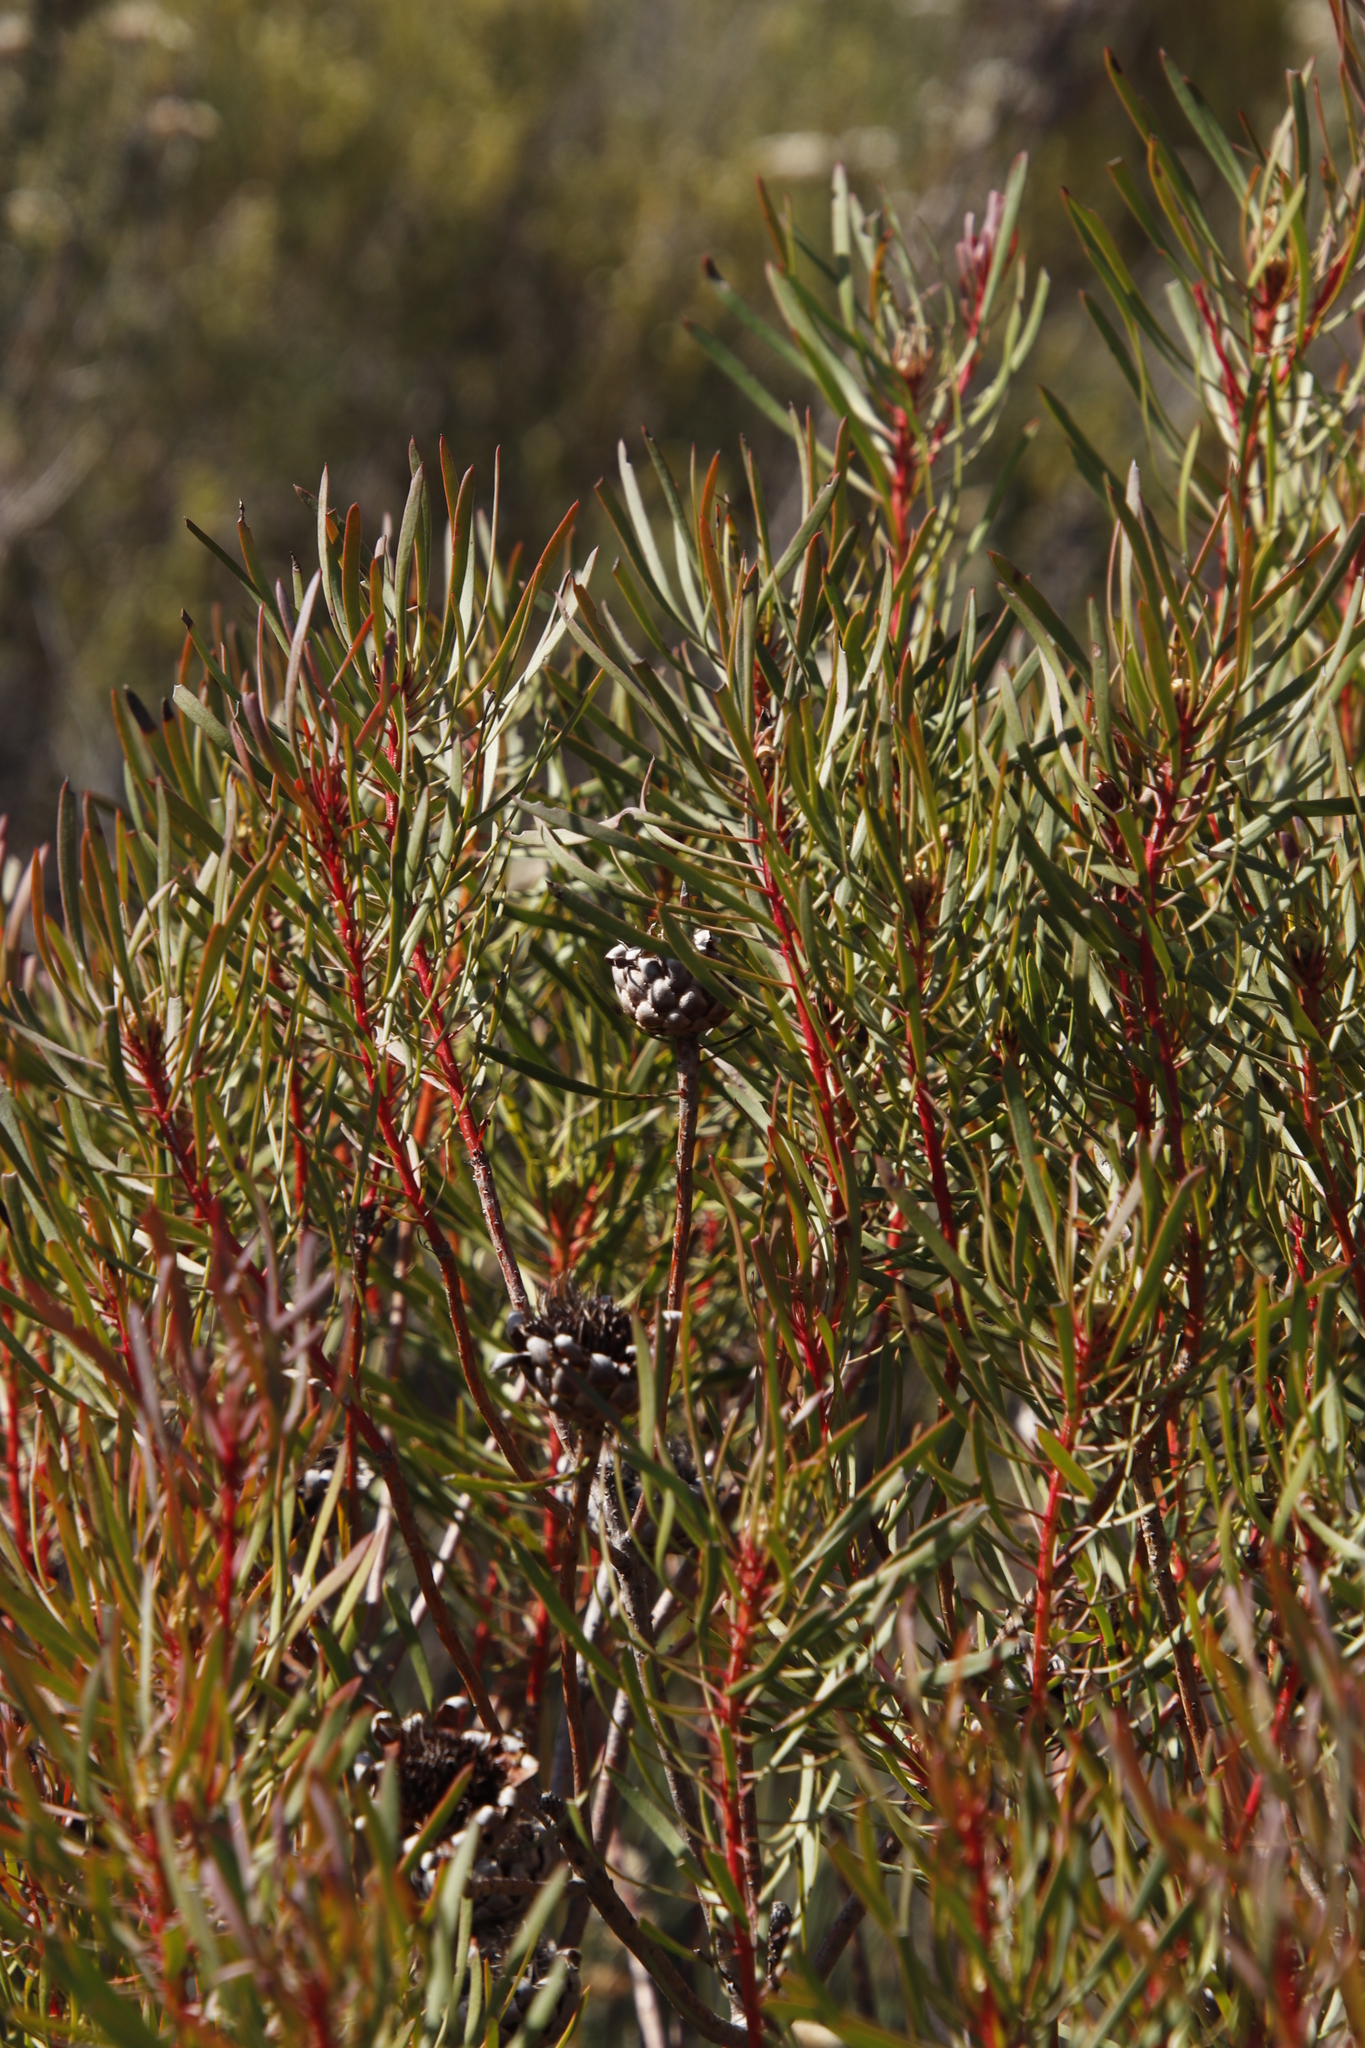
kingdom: Plantae
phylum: Tracheophyta
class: Magnoliopsida
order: Proteales
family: Proteaceae
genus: Protea
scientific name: Protea scolymocephala
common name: Thistle sugarbush
